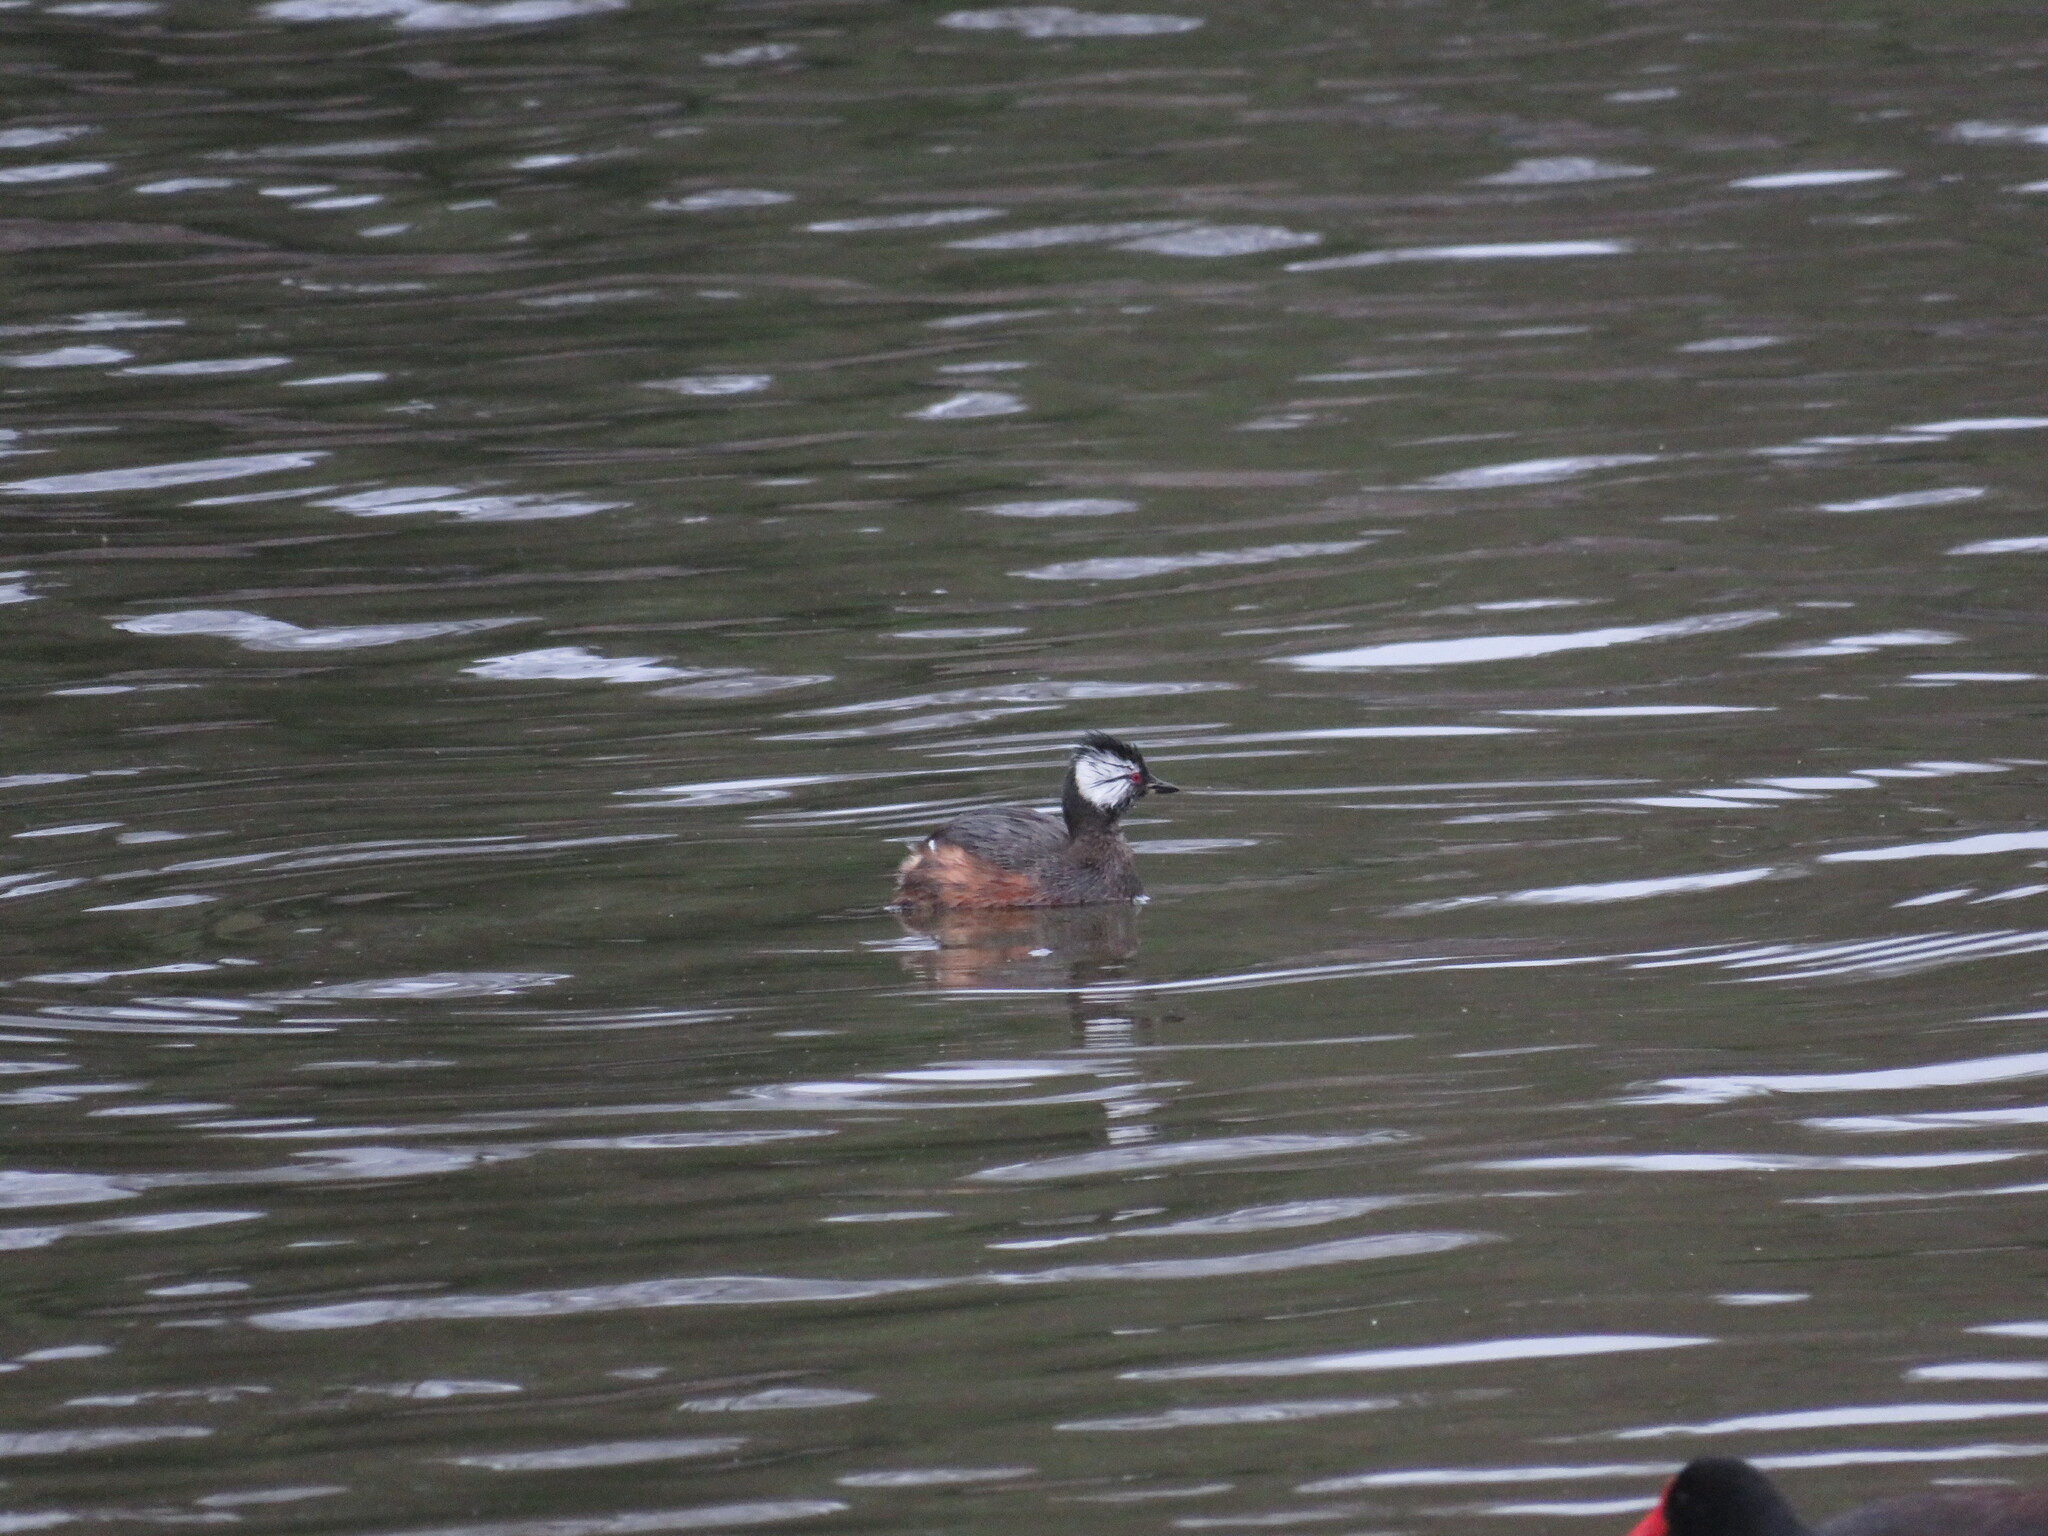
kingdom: Animalia
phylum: Chordata
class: Aves
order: Podicipediformes
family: Podicipedidae
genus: Rollandia
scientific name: Rollandia rolland
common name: White-tufted grebe
